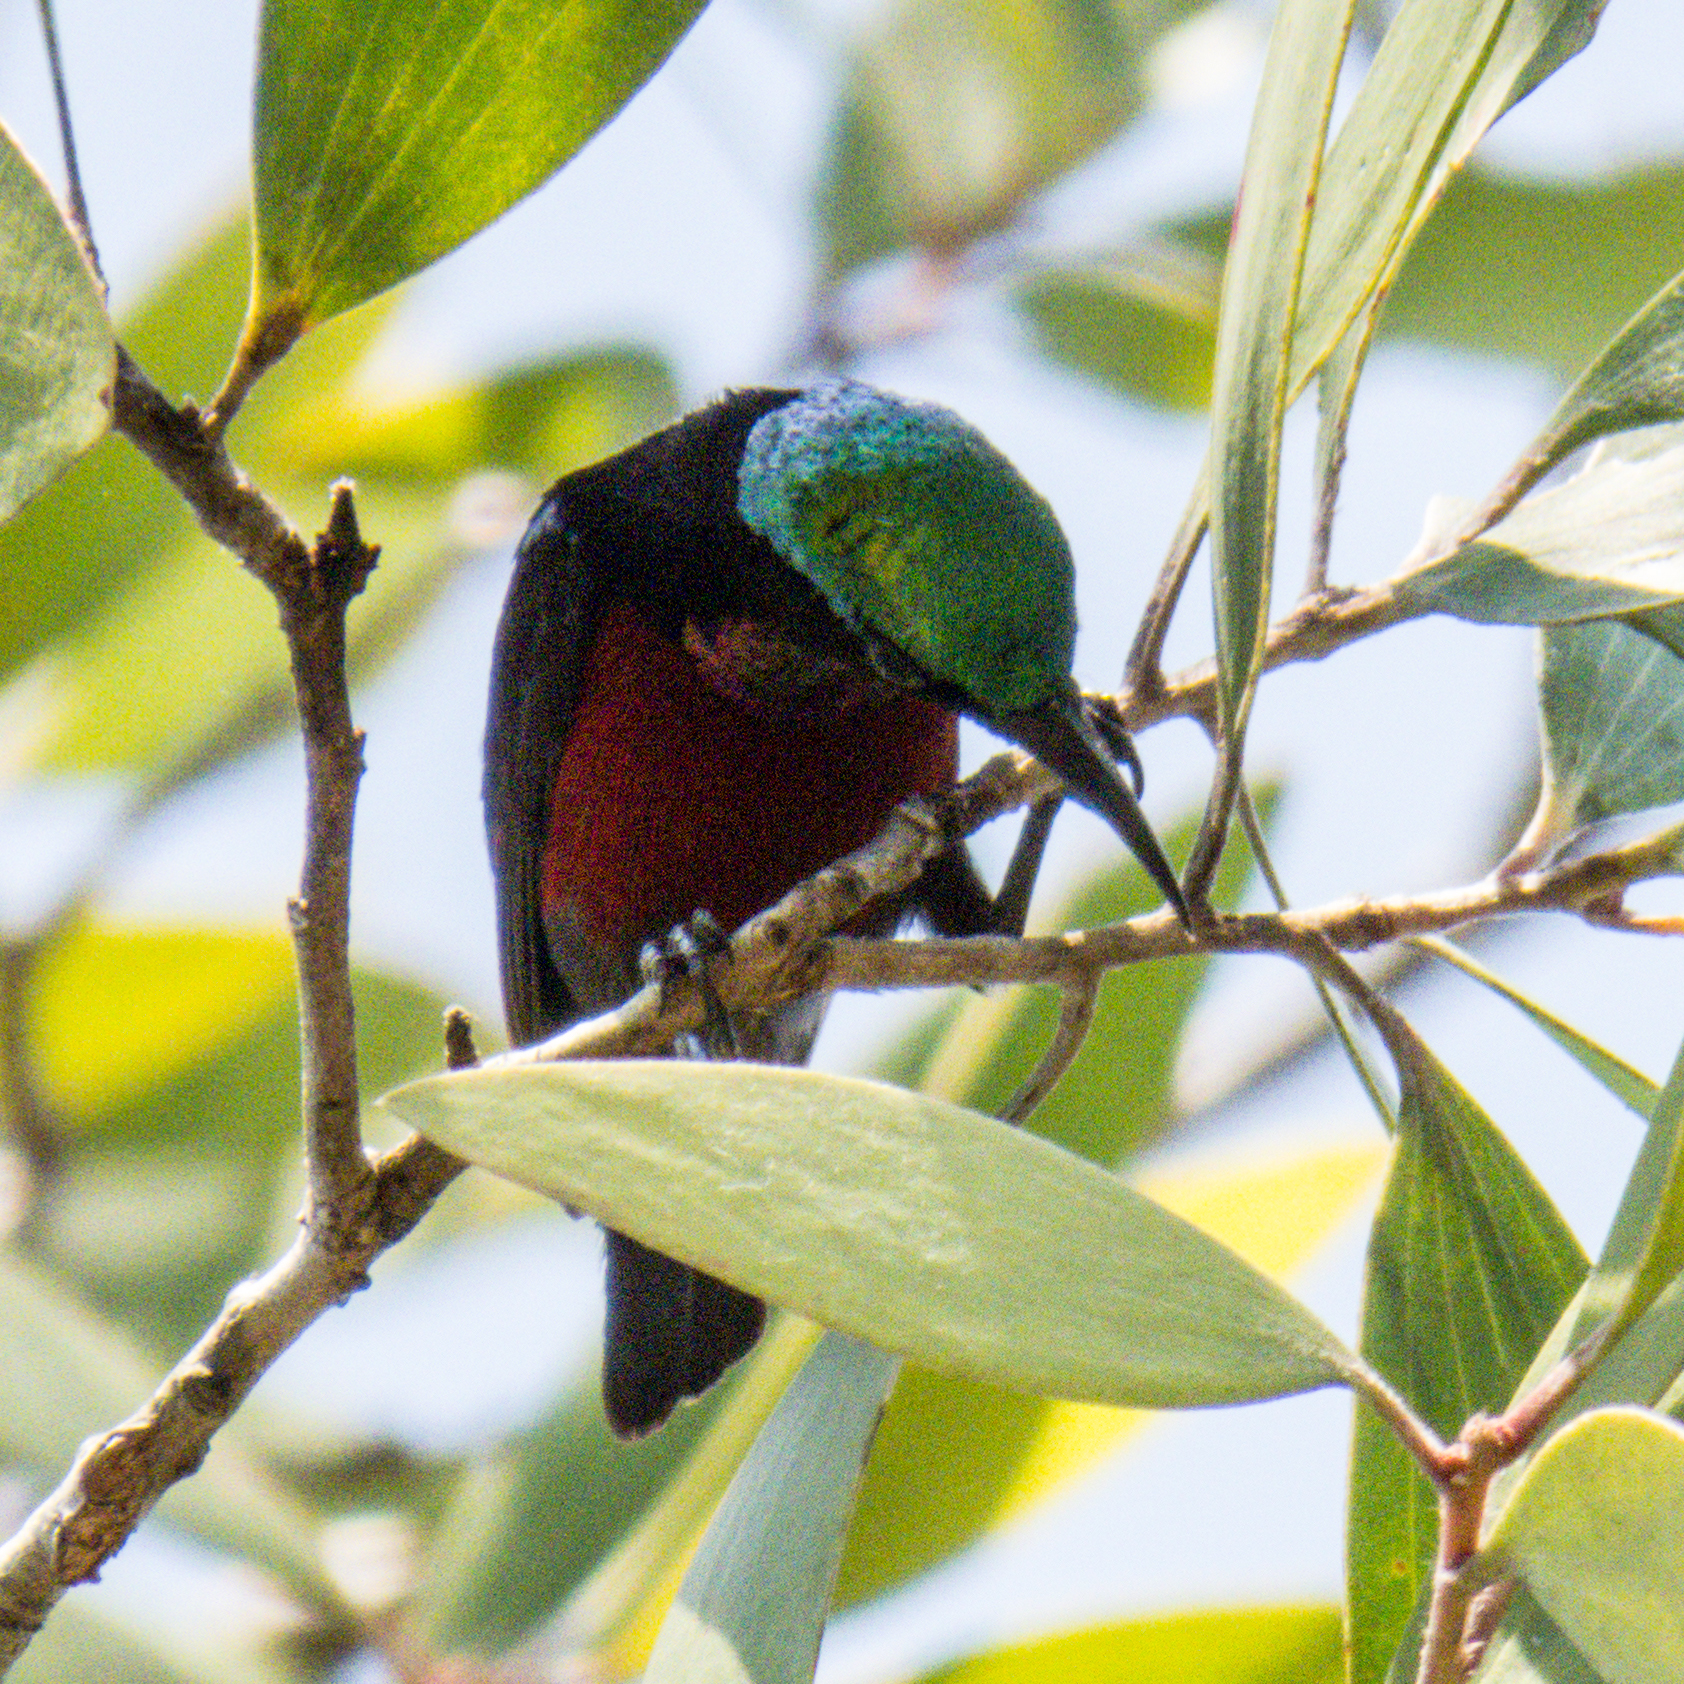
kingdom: Animalia
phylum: Chordata
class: Aves
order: Passeriformes
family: Nectariniidae
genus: Leptocoma
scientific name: Leptocoma brasiliana
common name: Van hasselt's sunbird
